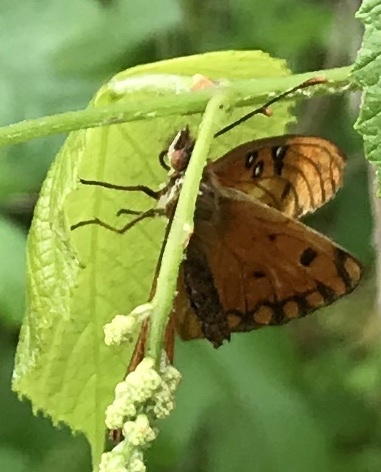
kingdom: Animalia
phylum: Arthropoda
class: Insecta
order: Lepidoptera
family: Nymphalidae
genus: Dione
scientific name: Dione vanillae
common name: Gulf fritillary
